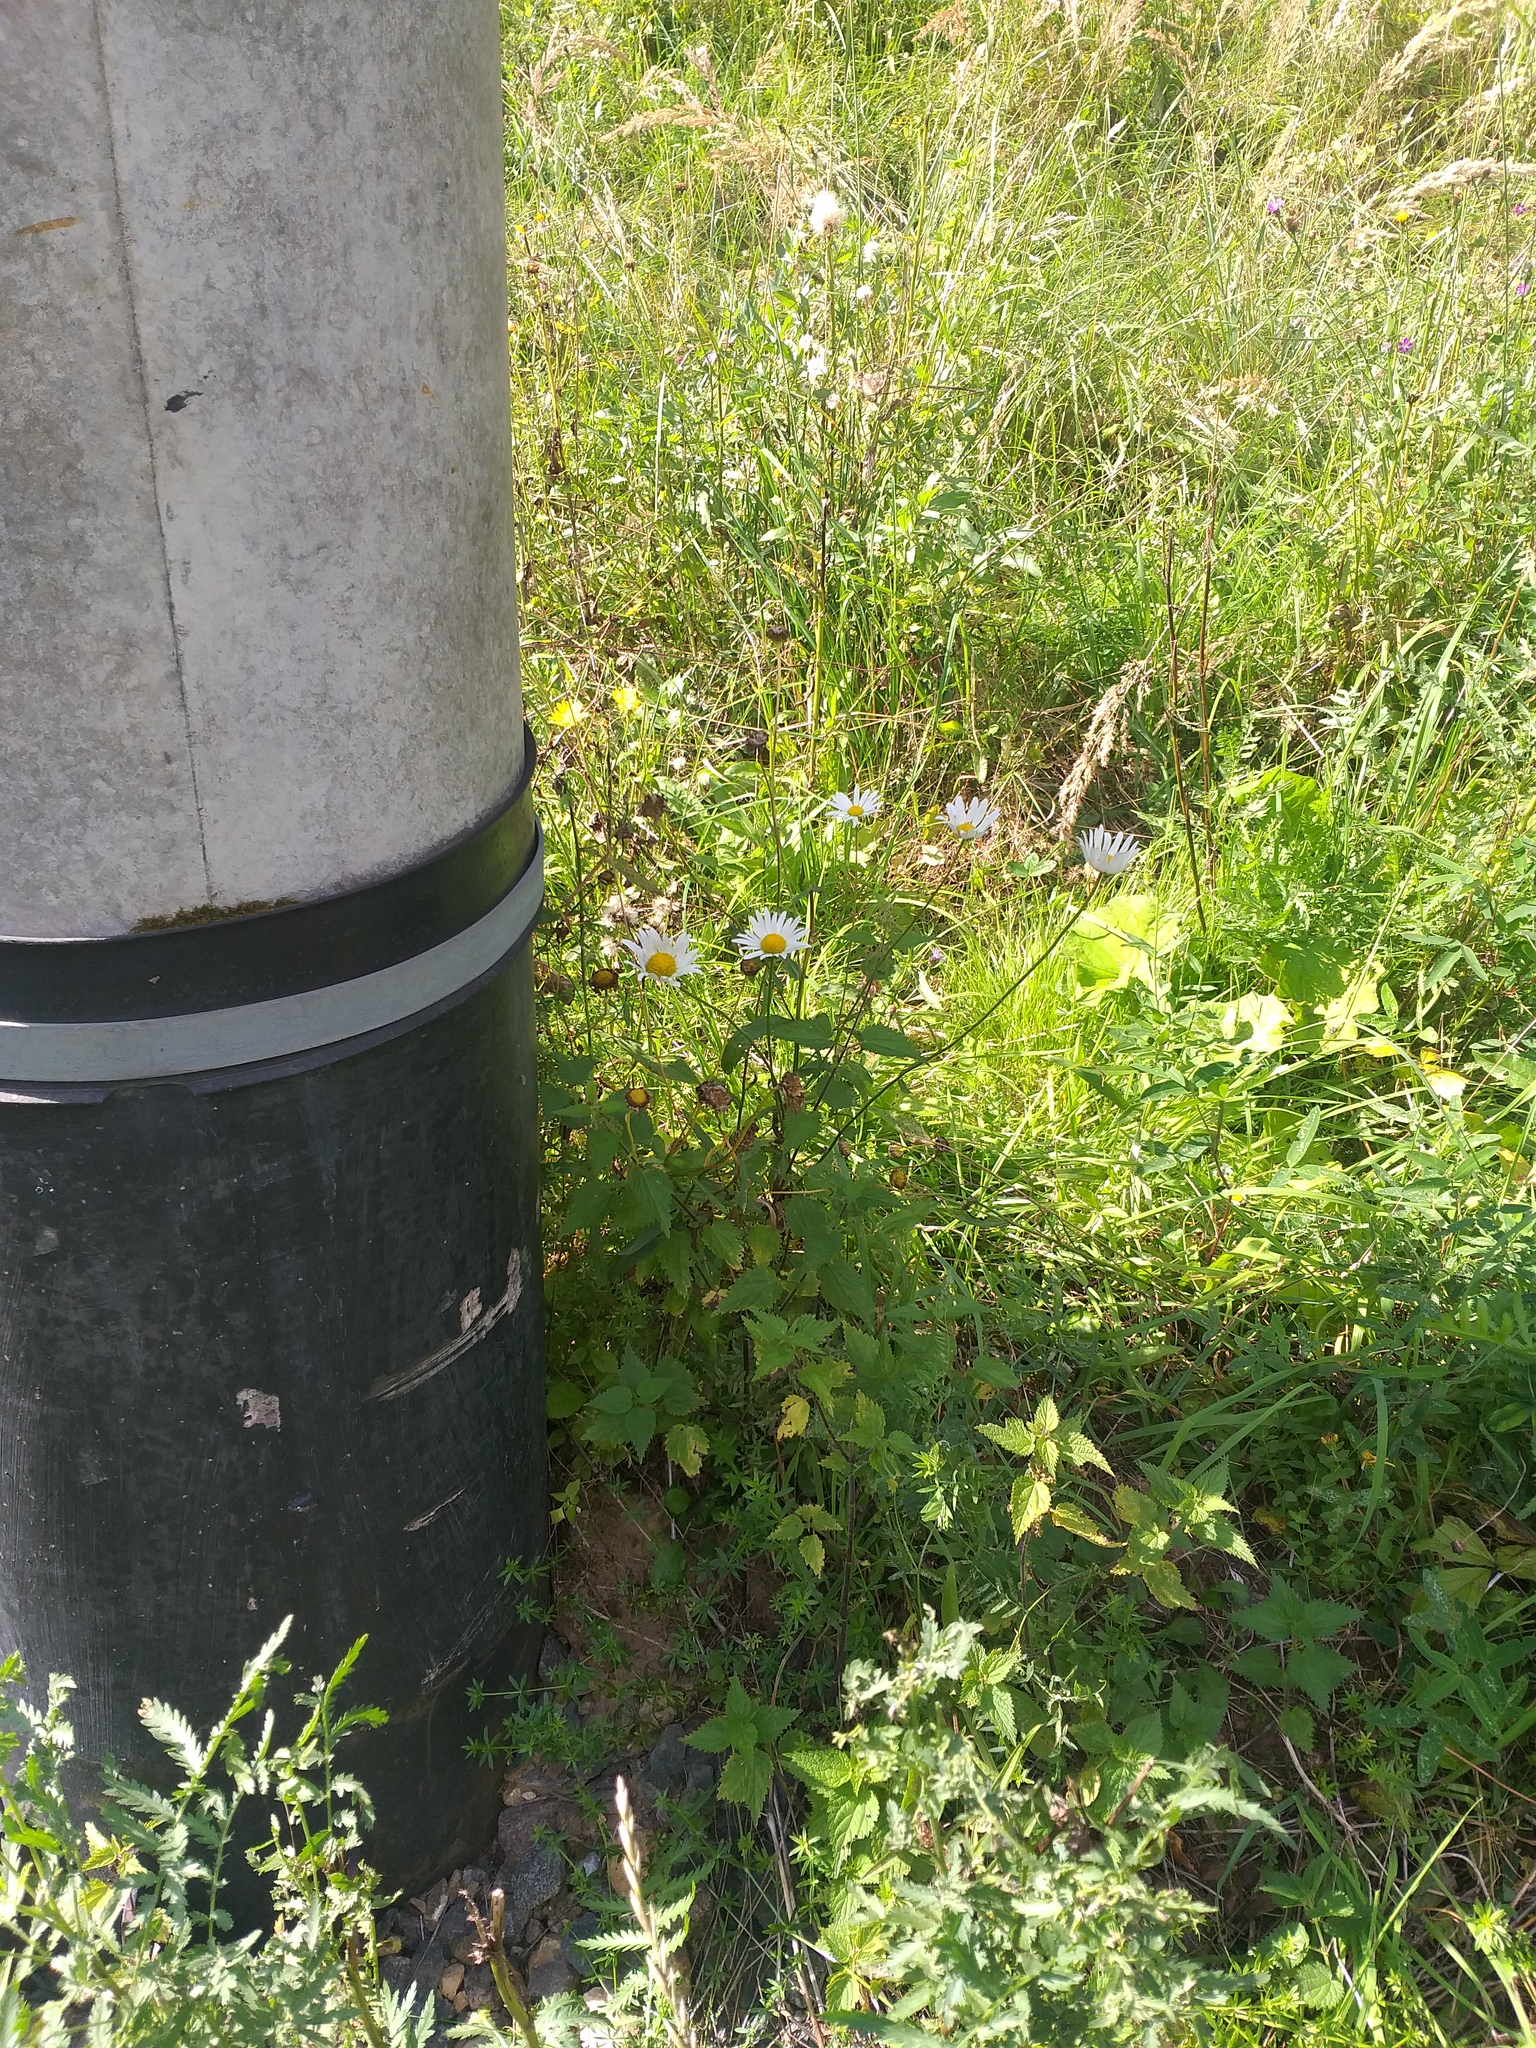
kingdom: Plantae
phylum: Tracheophyta
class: Magnoliopsida
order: Asterales
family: Asteraceae
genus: Leucanthemum
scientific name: Leucanthemum vulgare
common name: Oxeye daisy
